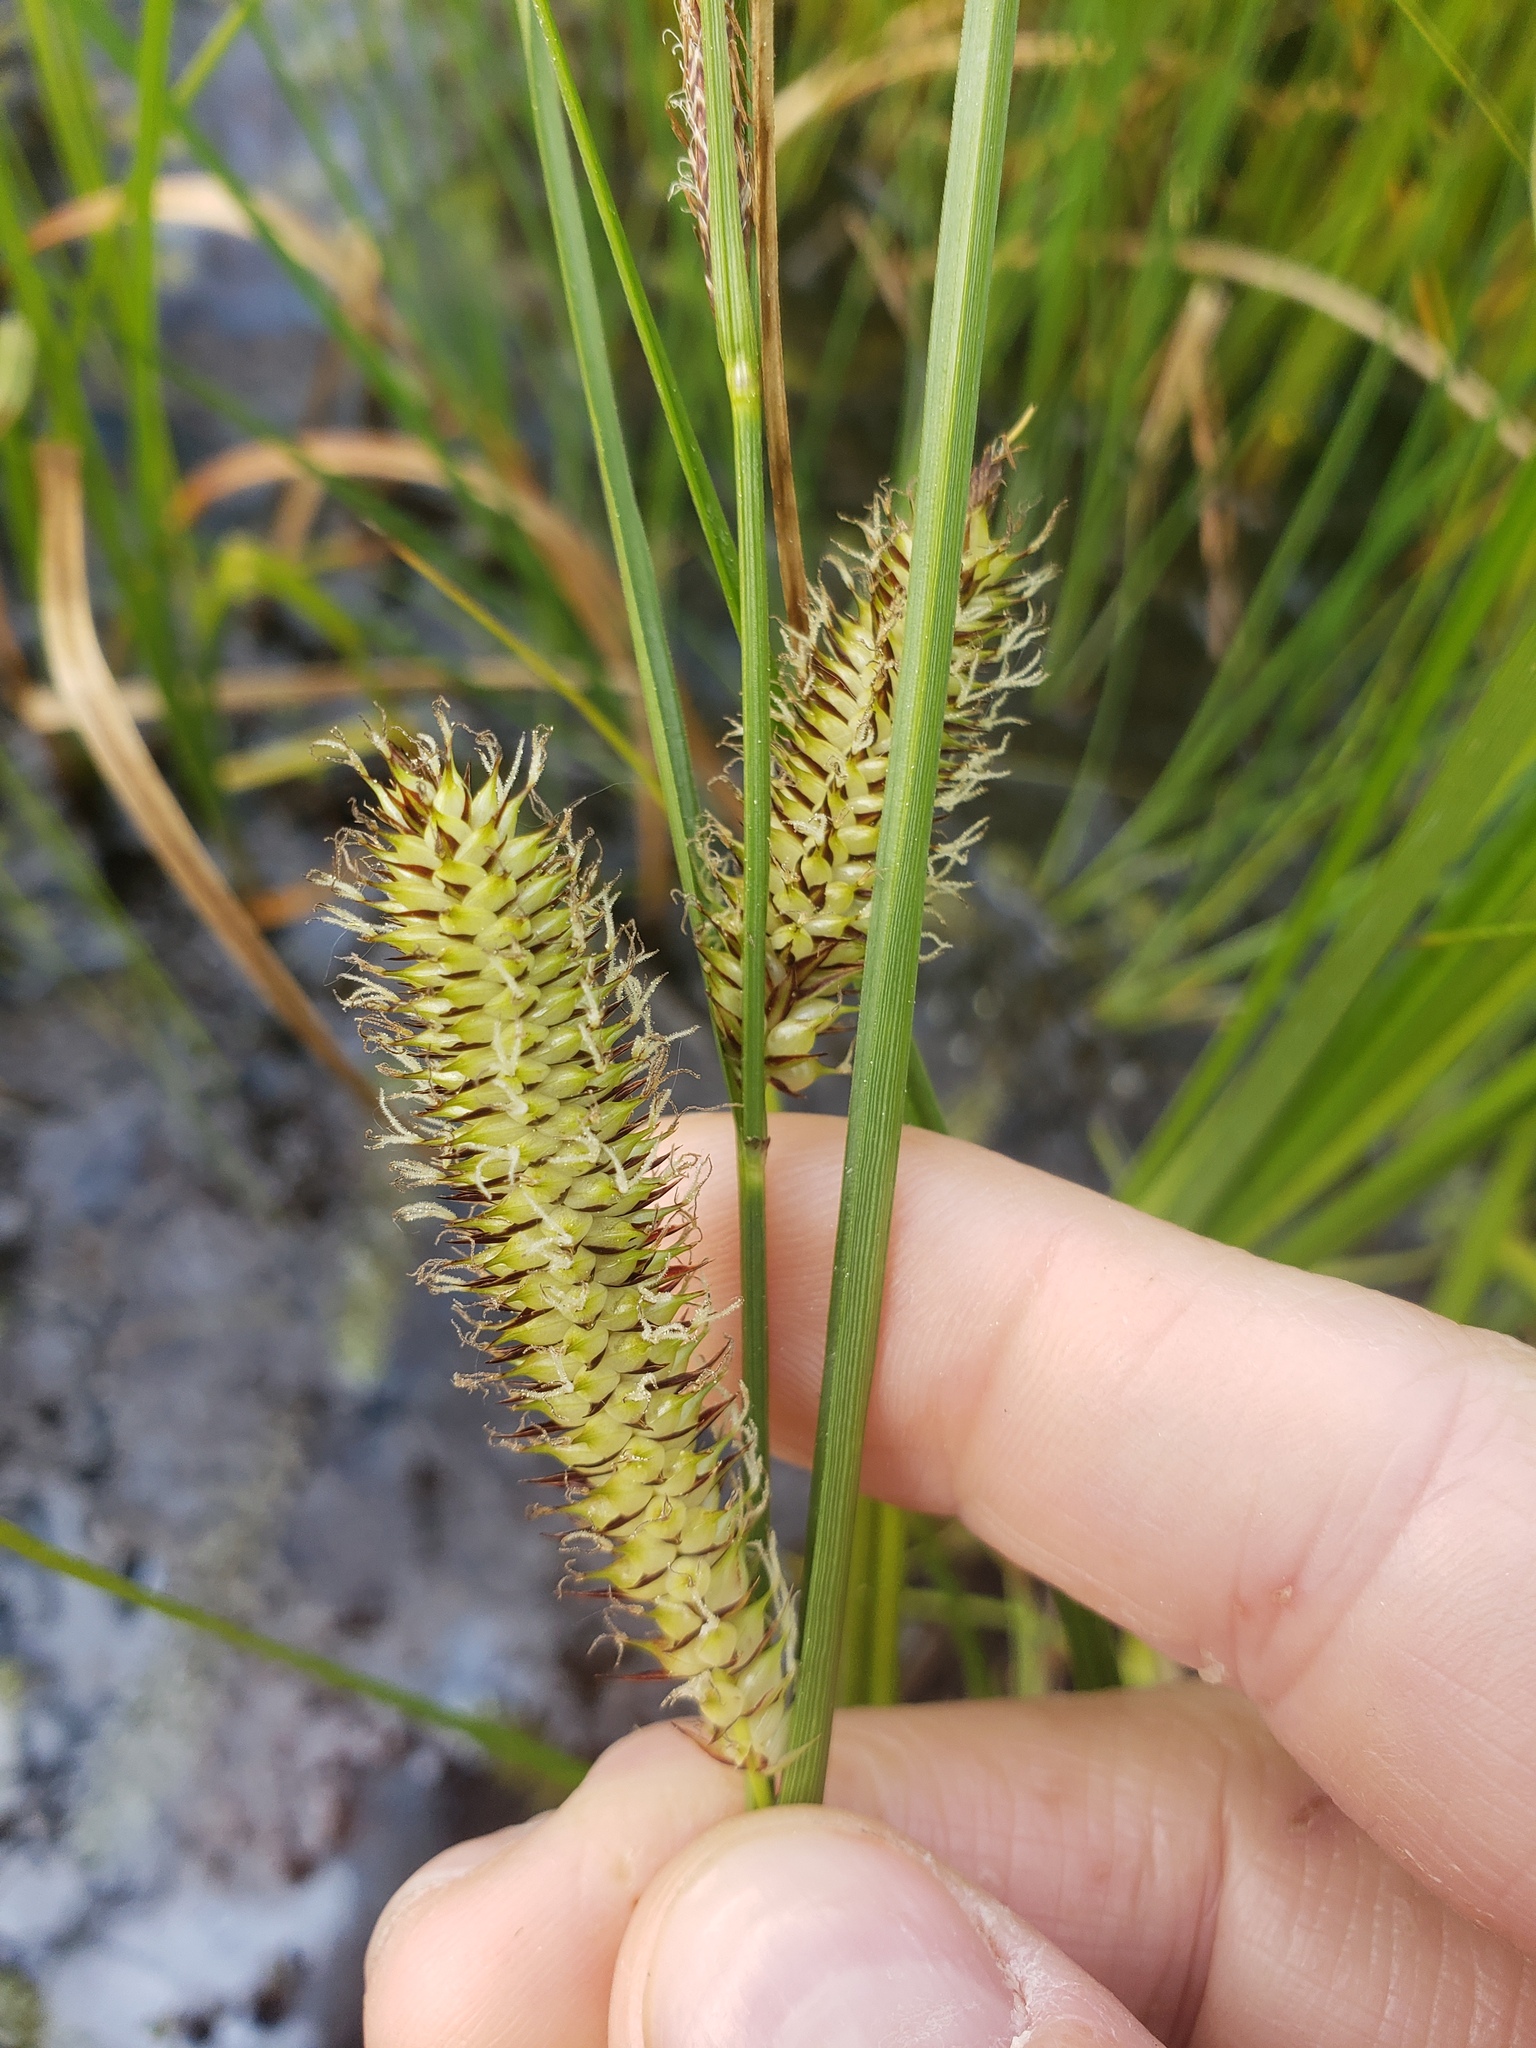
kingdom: Plantae
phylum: Tracheophyta
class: Liliopsida
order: Poales
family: Cyperaceae
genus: Carex
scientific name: Carex utriculata
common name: Beaked sedge
